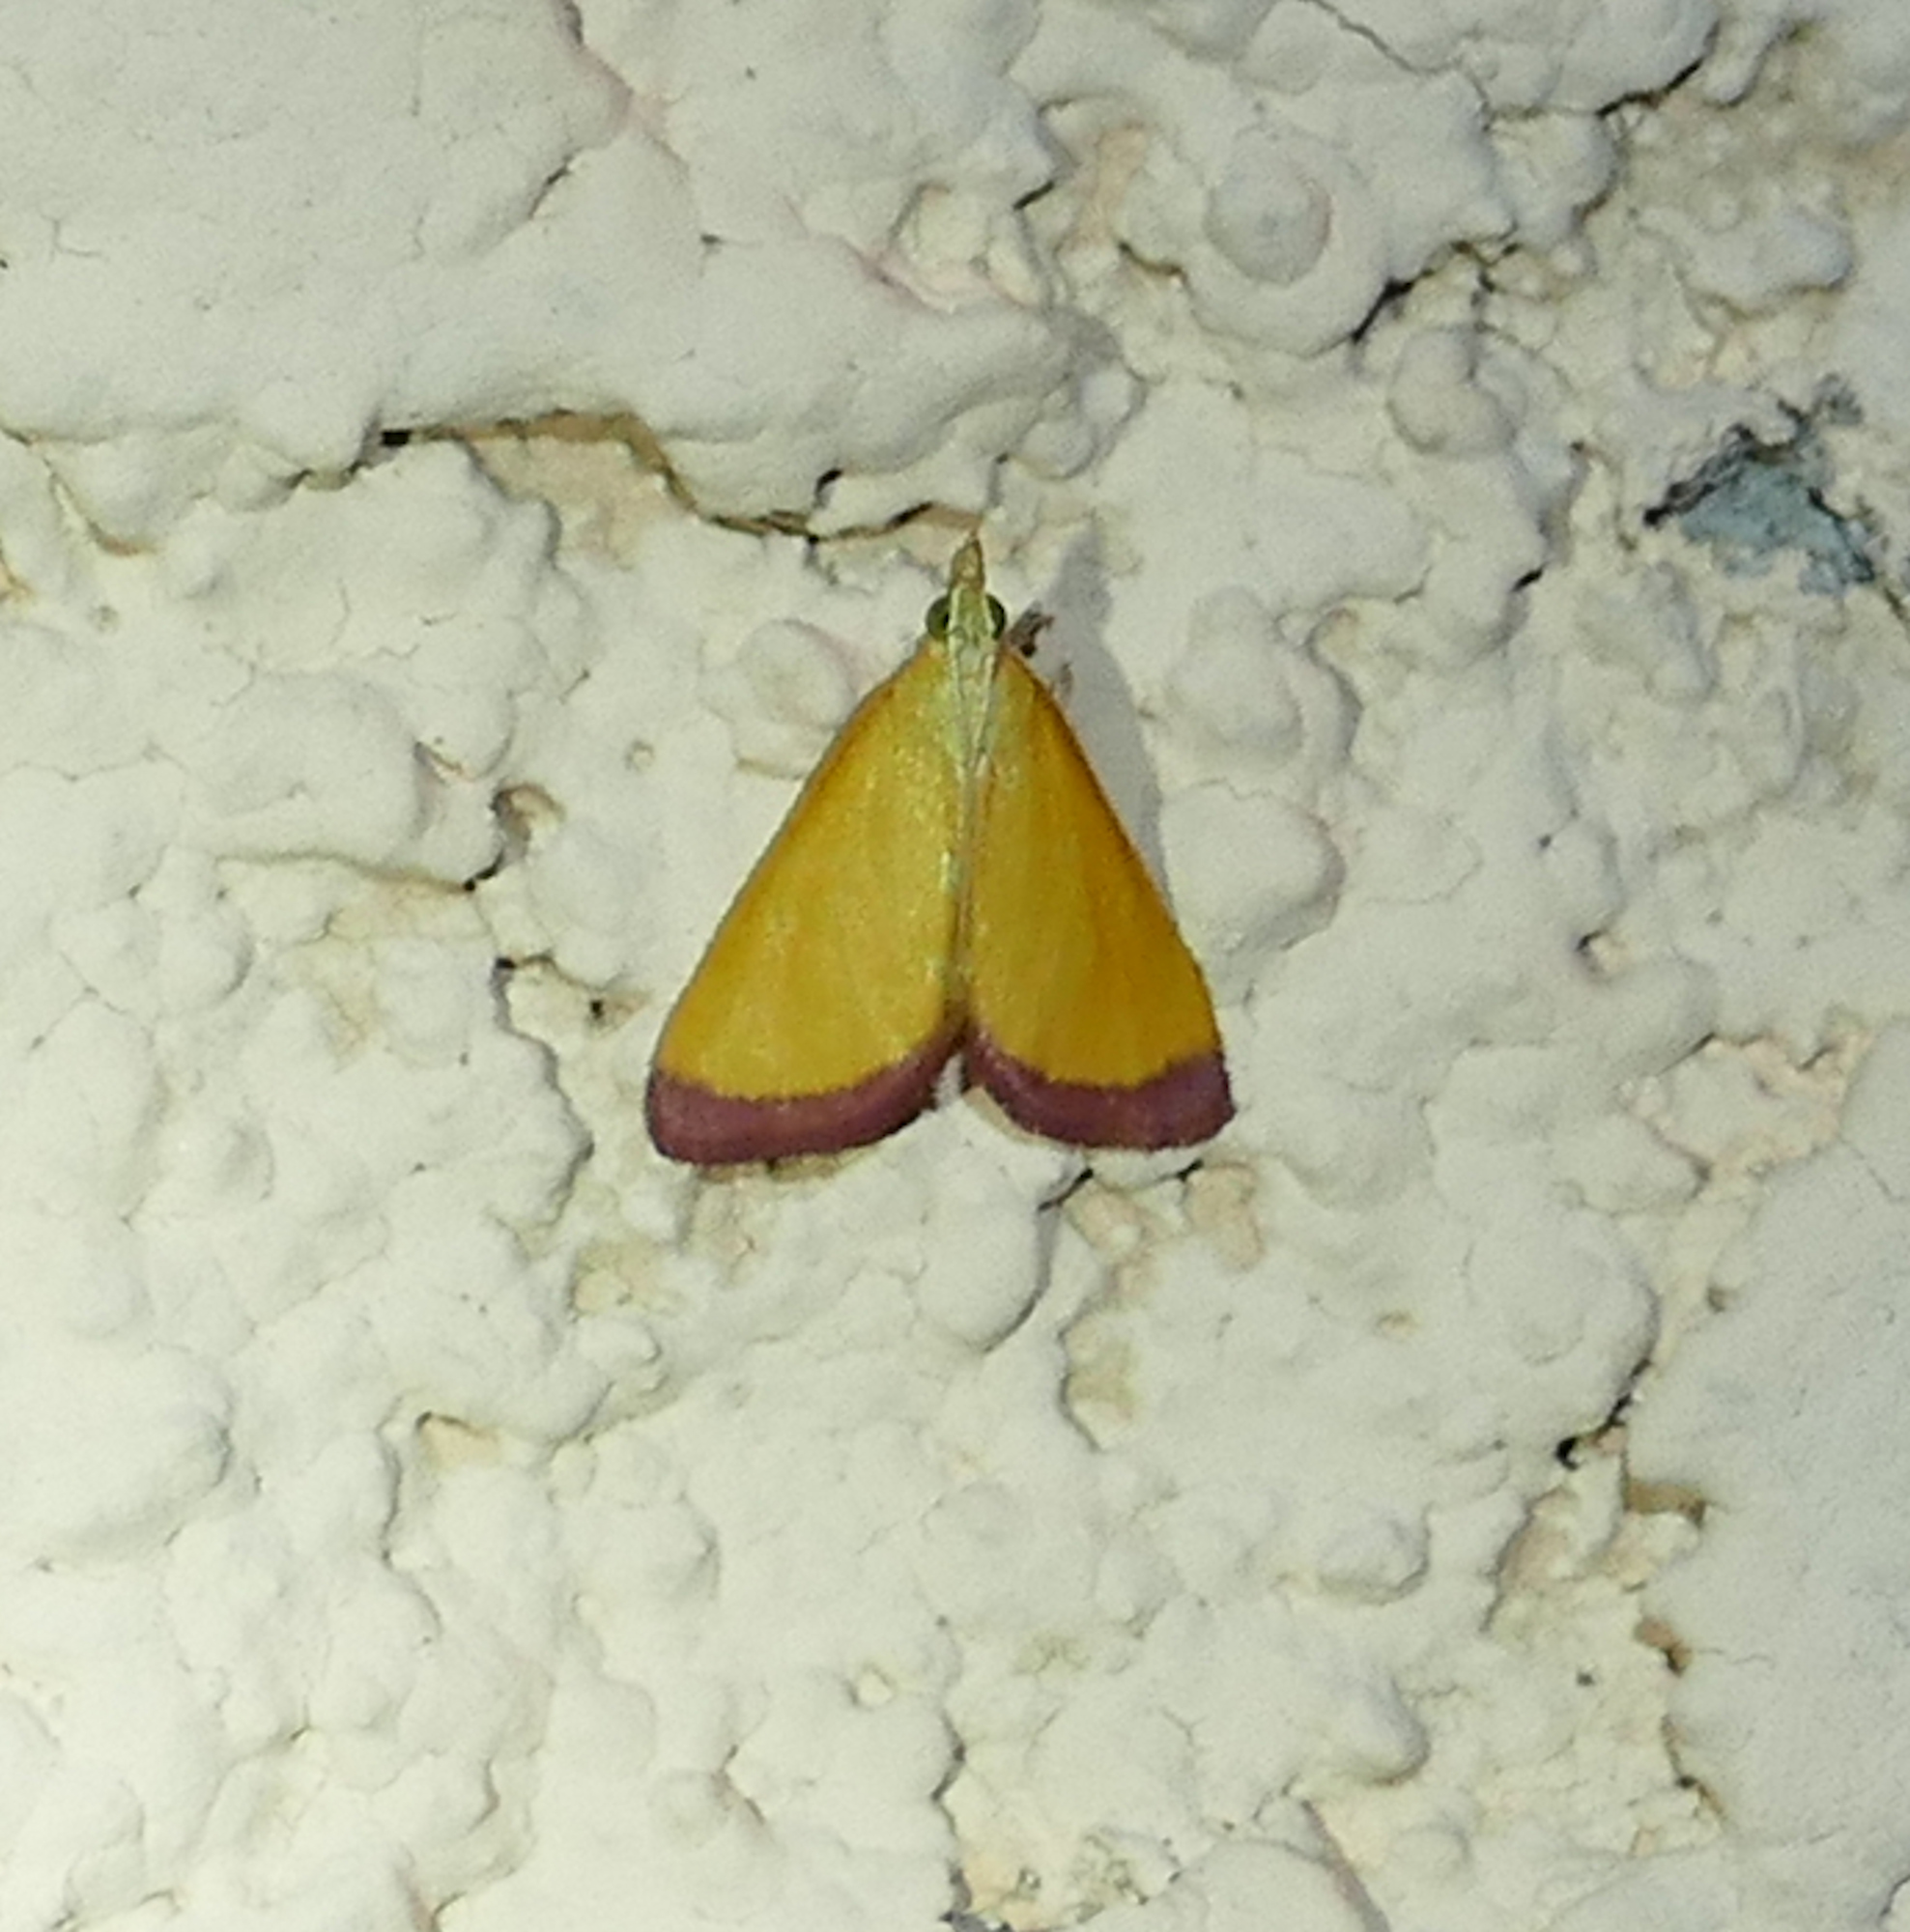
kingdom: Animalia
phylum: Arthropoda
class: Insecta
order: Lepidoptera
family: Crambidae
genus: Xanthostege
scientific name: Xanthostege plana
